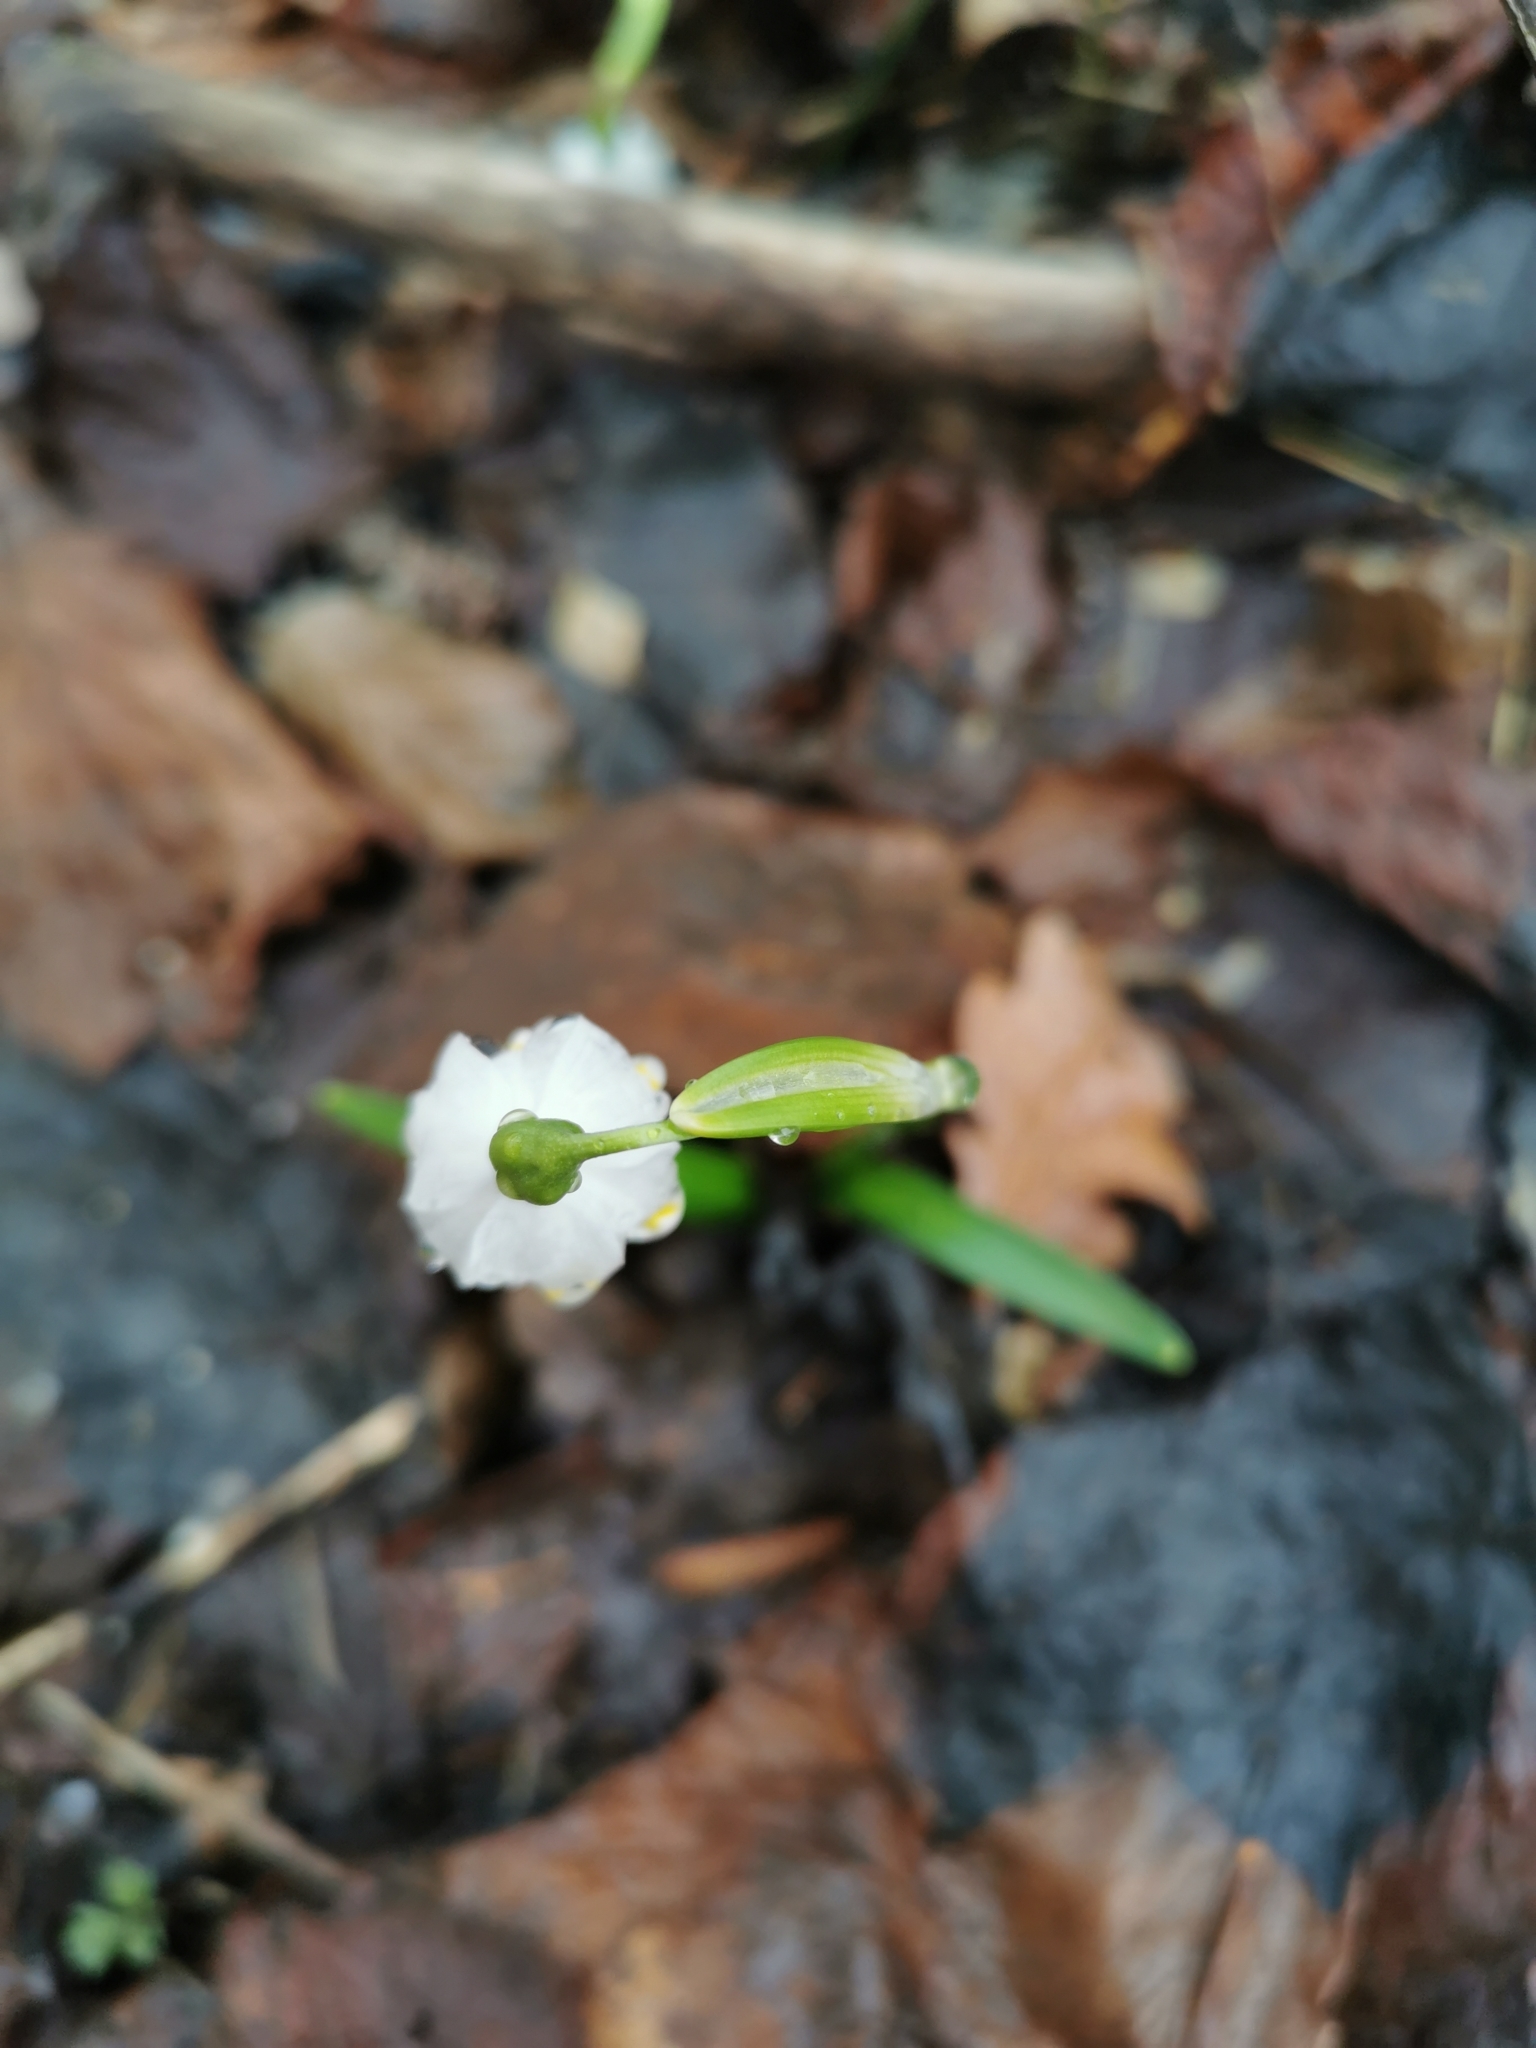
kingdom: Plantae
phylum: Tracheophyta
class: Liliopsida
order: Asparagales
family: Amaryllidaceae
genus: Leucojum
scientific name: Leucojum vernum
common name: Spring snowflake
